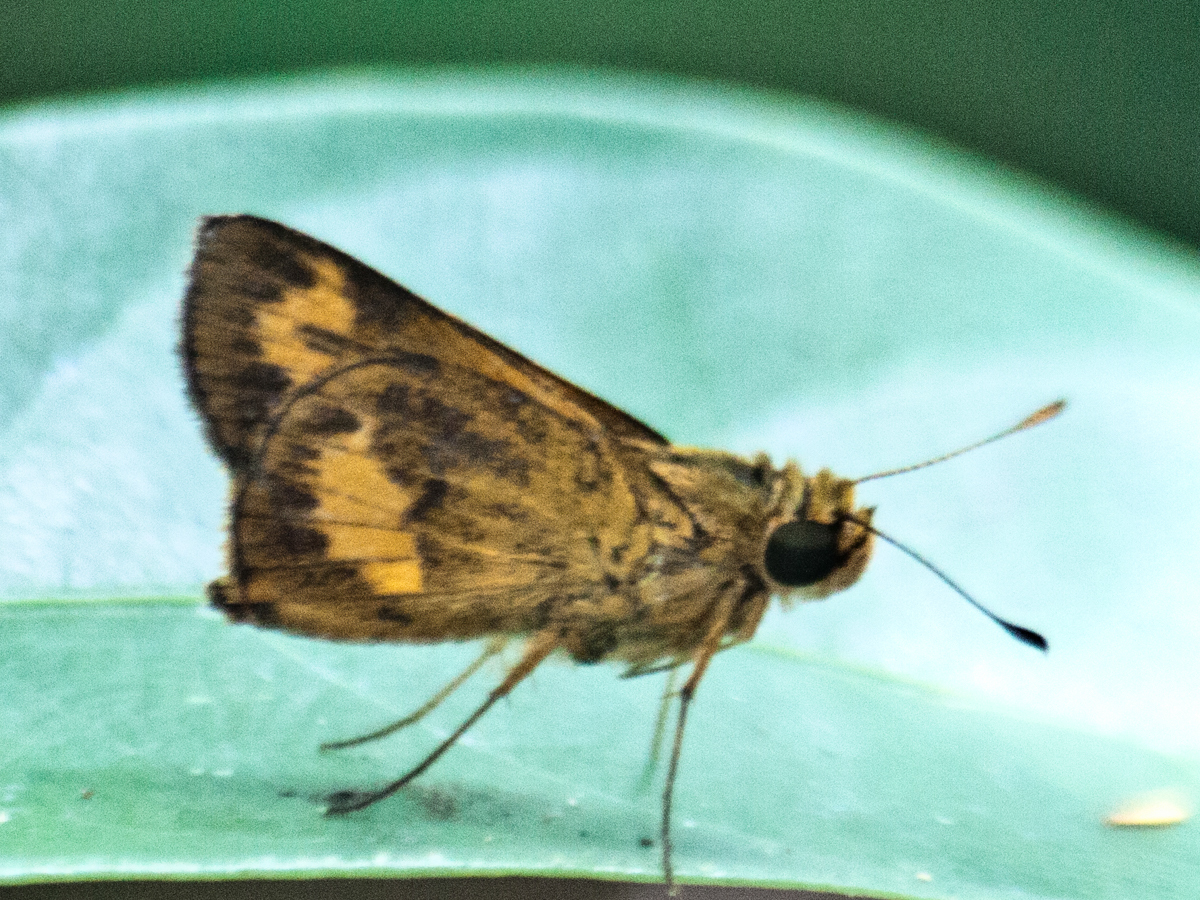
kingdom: Animalia
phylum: Arthropoda
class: Insecta
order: Lepidoptera
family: Hesperiidae
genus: Oriens
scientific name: Oriens gola
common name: Common dartlet
